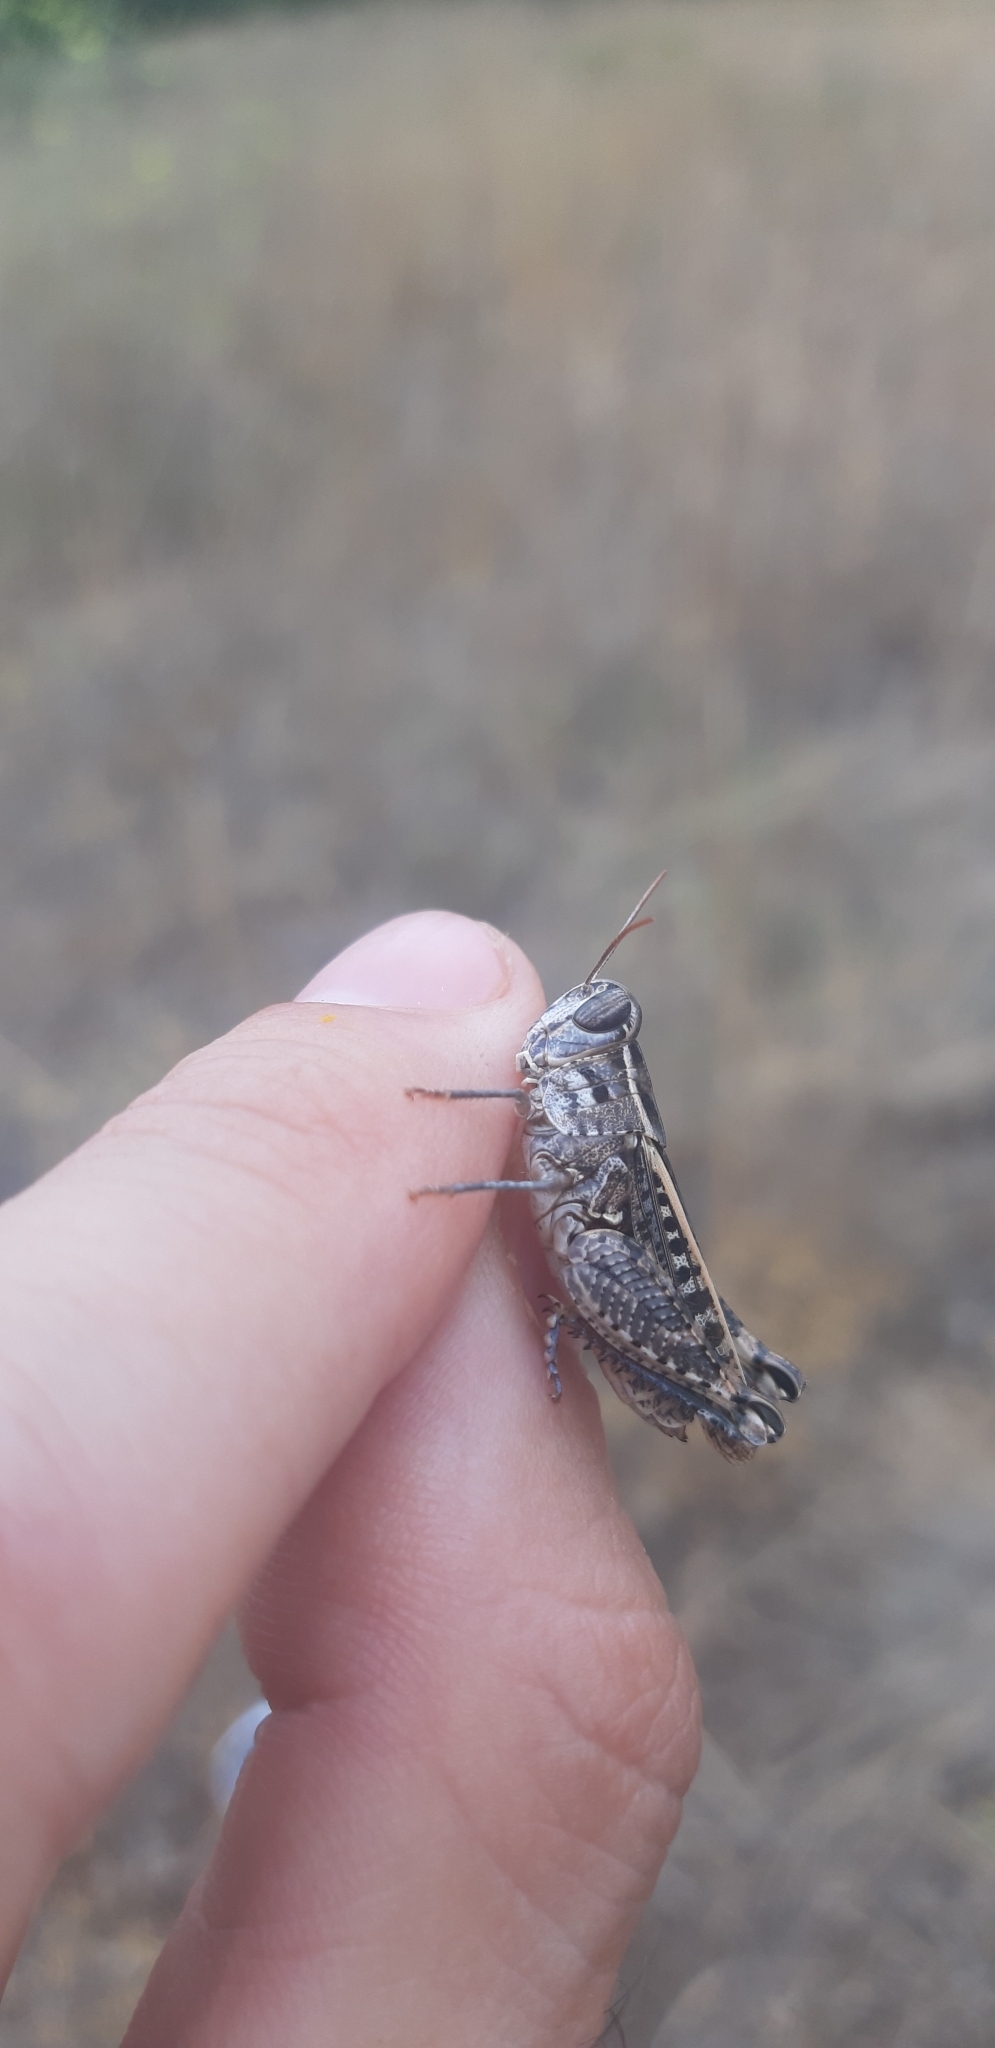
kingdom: Animalia
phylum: Arthropoda
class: Insecta
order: Orthoptera
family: Acrididae
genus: Calliptamus
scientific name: Calliptamus barbarus
